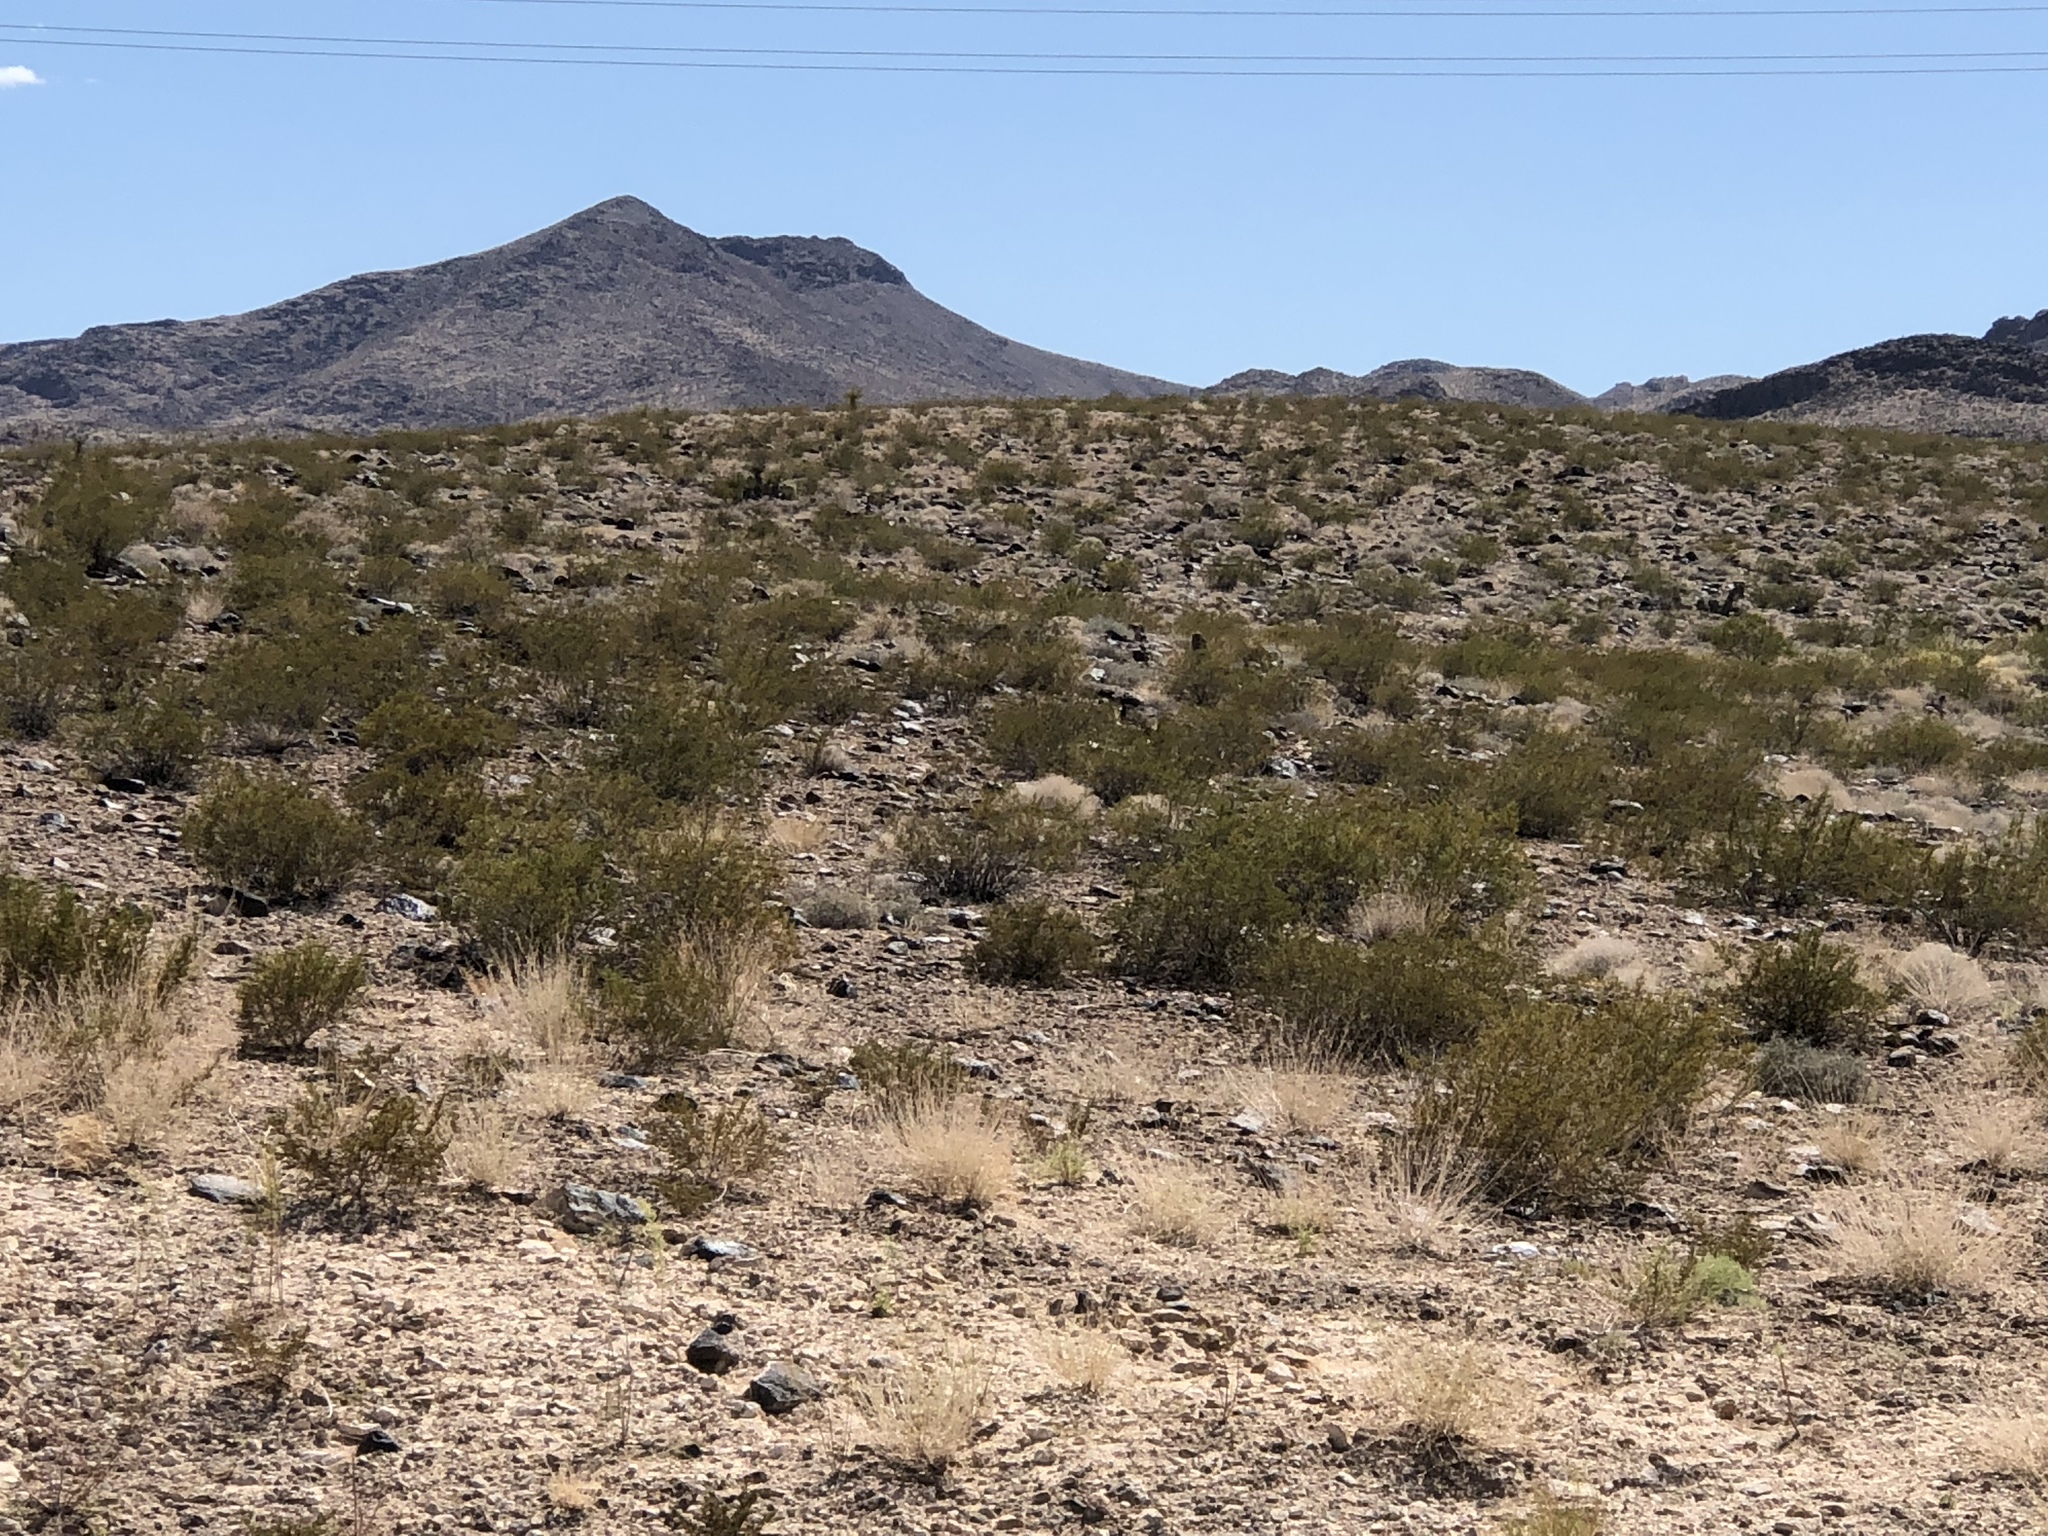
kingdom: Plantae
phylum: Tracheophyta
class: Magnoliopsida
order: Zygophyllales
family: Zygophyllaceae
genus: Larrea
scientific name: Larrea tridentata
